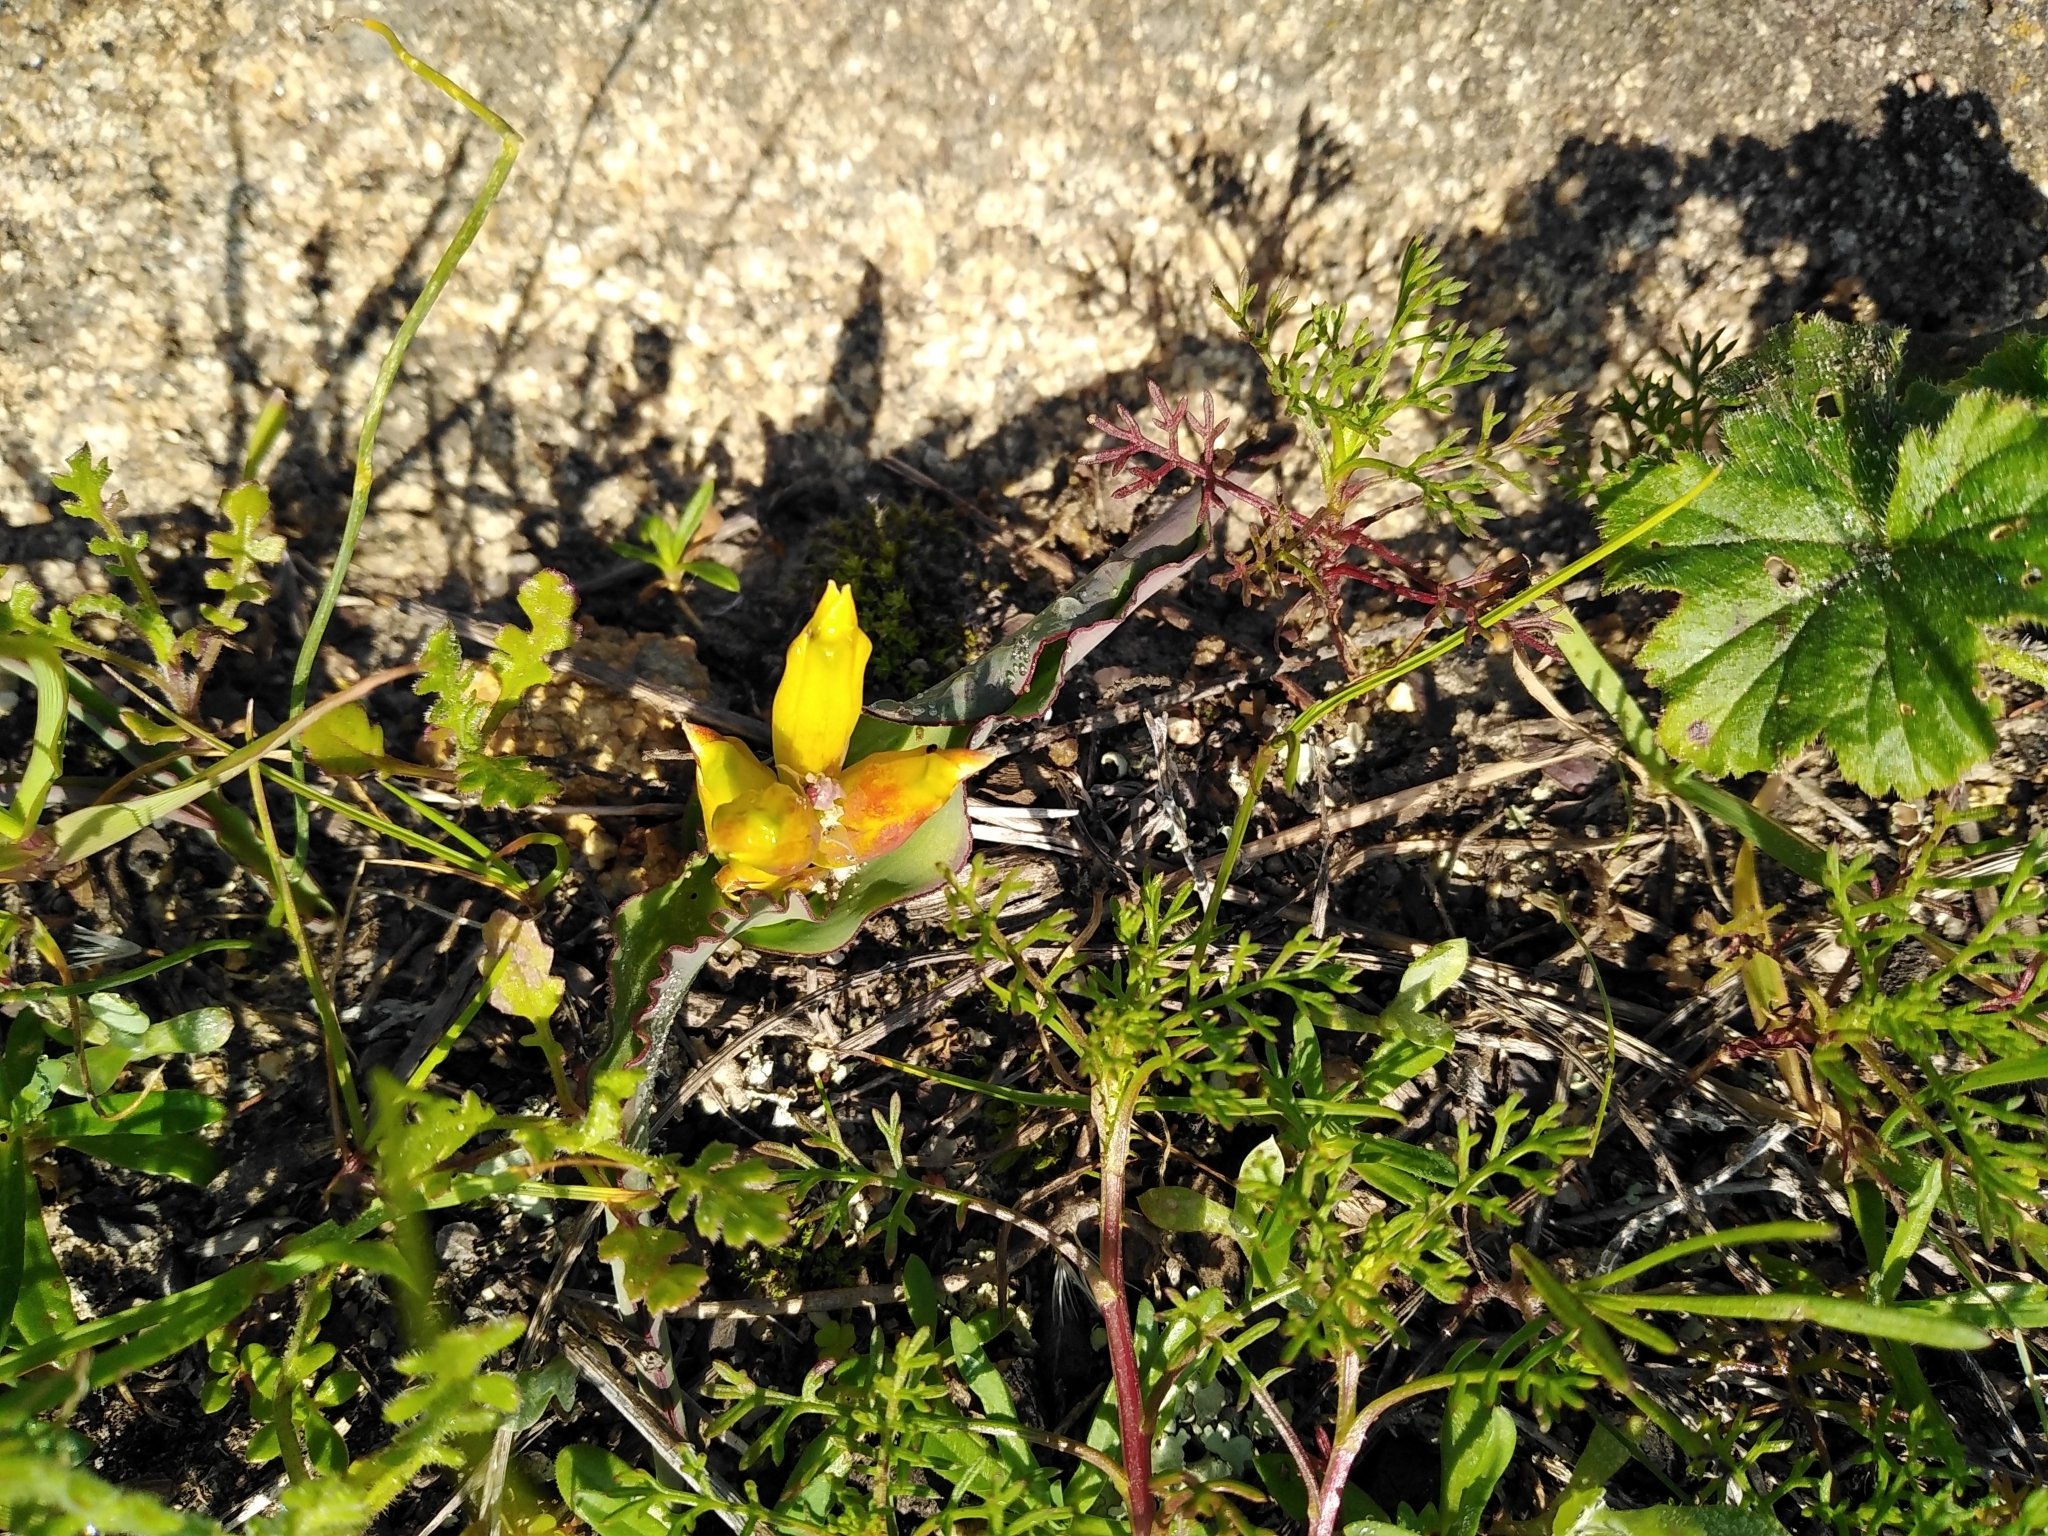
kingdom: Plantae
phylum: Tracheophyta
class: Liliopsida
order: Asparagales
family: Asparagaceae
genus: Lachenalia
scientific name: Lachenalia reflexa
